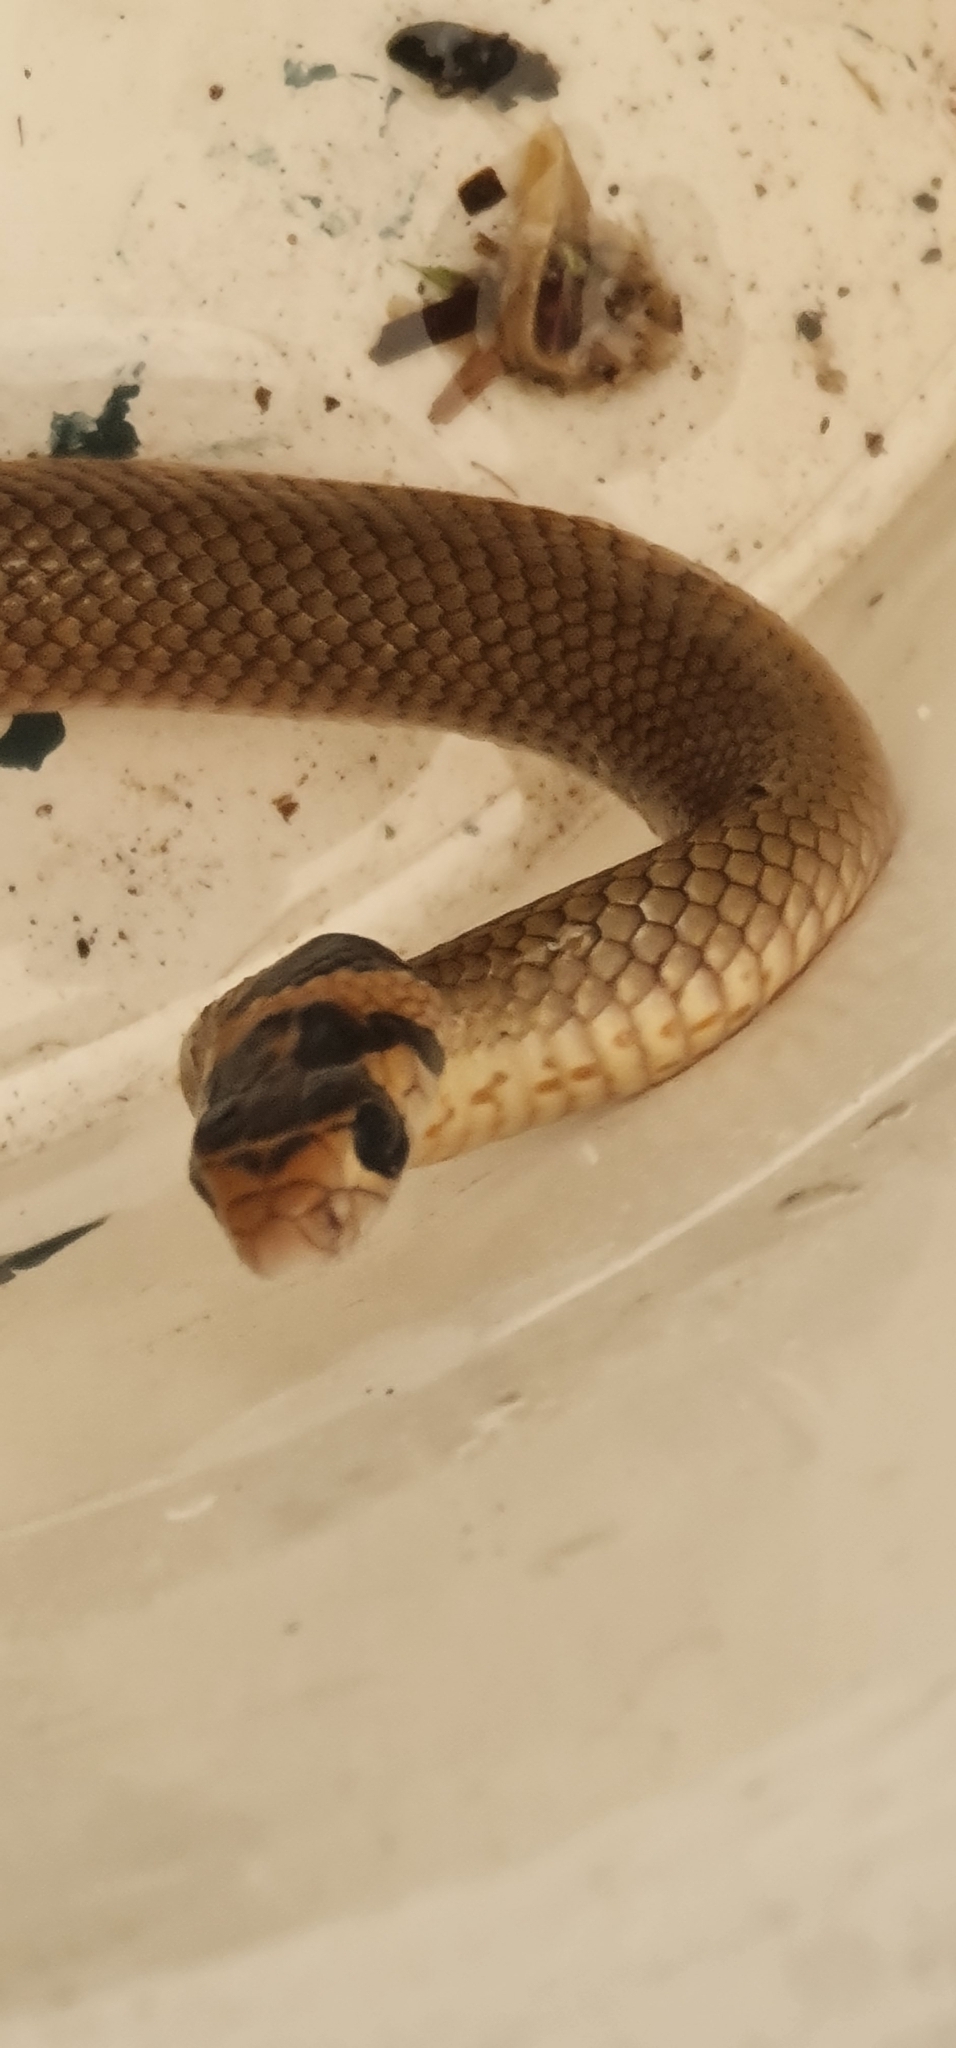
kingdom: Animalia
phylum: Chordata
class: Squamata
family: Elapidae
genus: Pseudonaja
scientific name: Pseudonaja textilis
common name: Eastern brown snake
